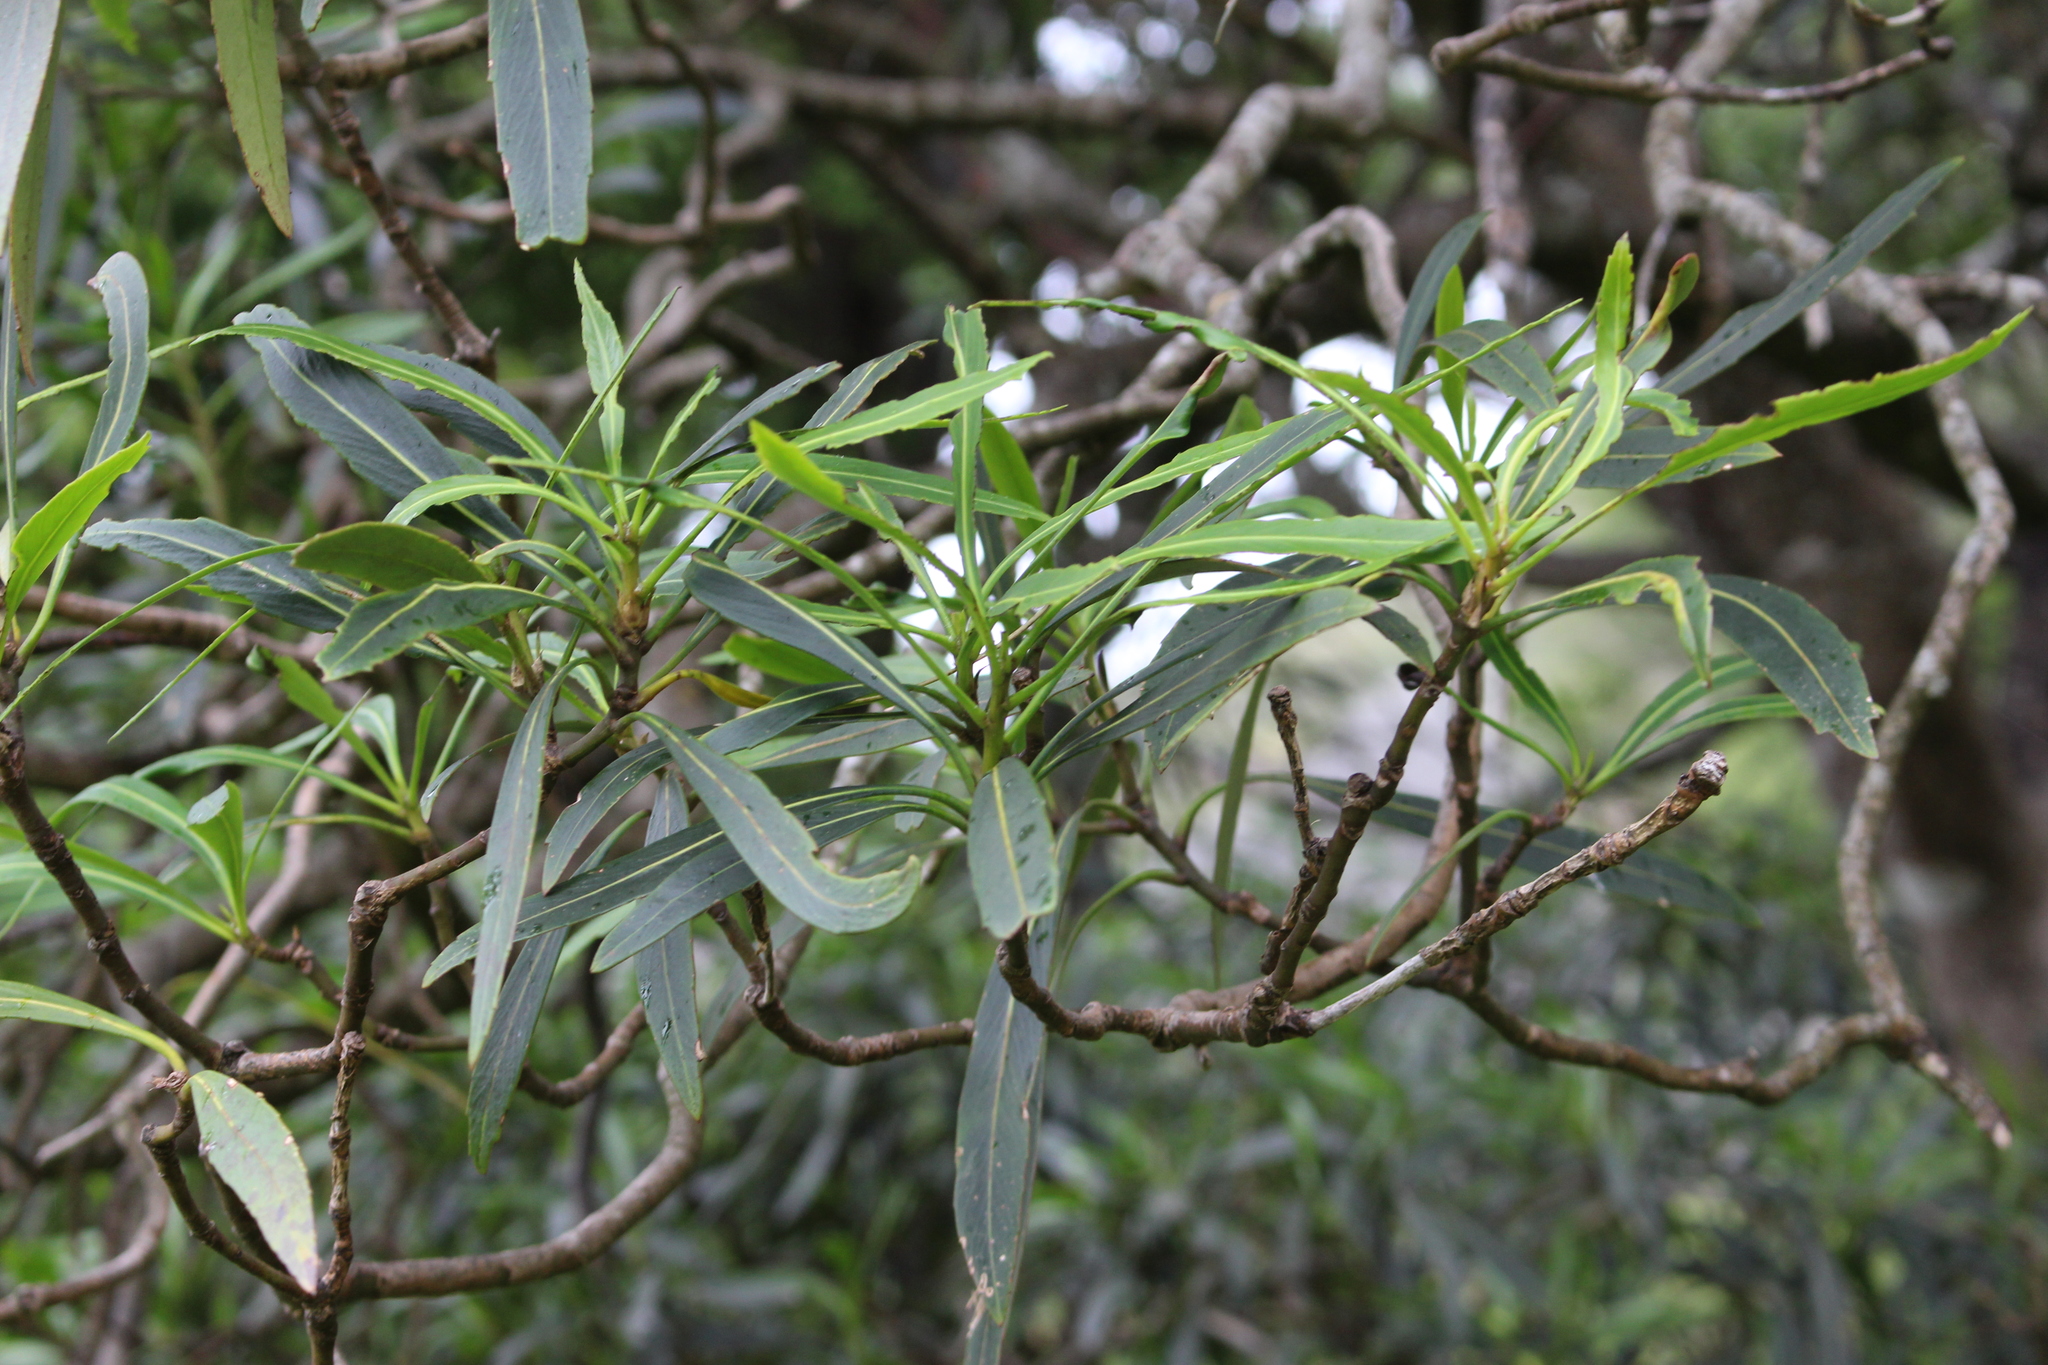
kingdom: Plantae
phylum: Tracheophyta
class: Magnoliopsida
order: Apiales
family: Araliaceae
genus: Pseudopanax
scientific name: Pseudopanax crassifolius
